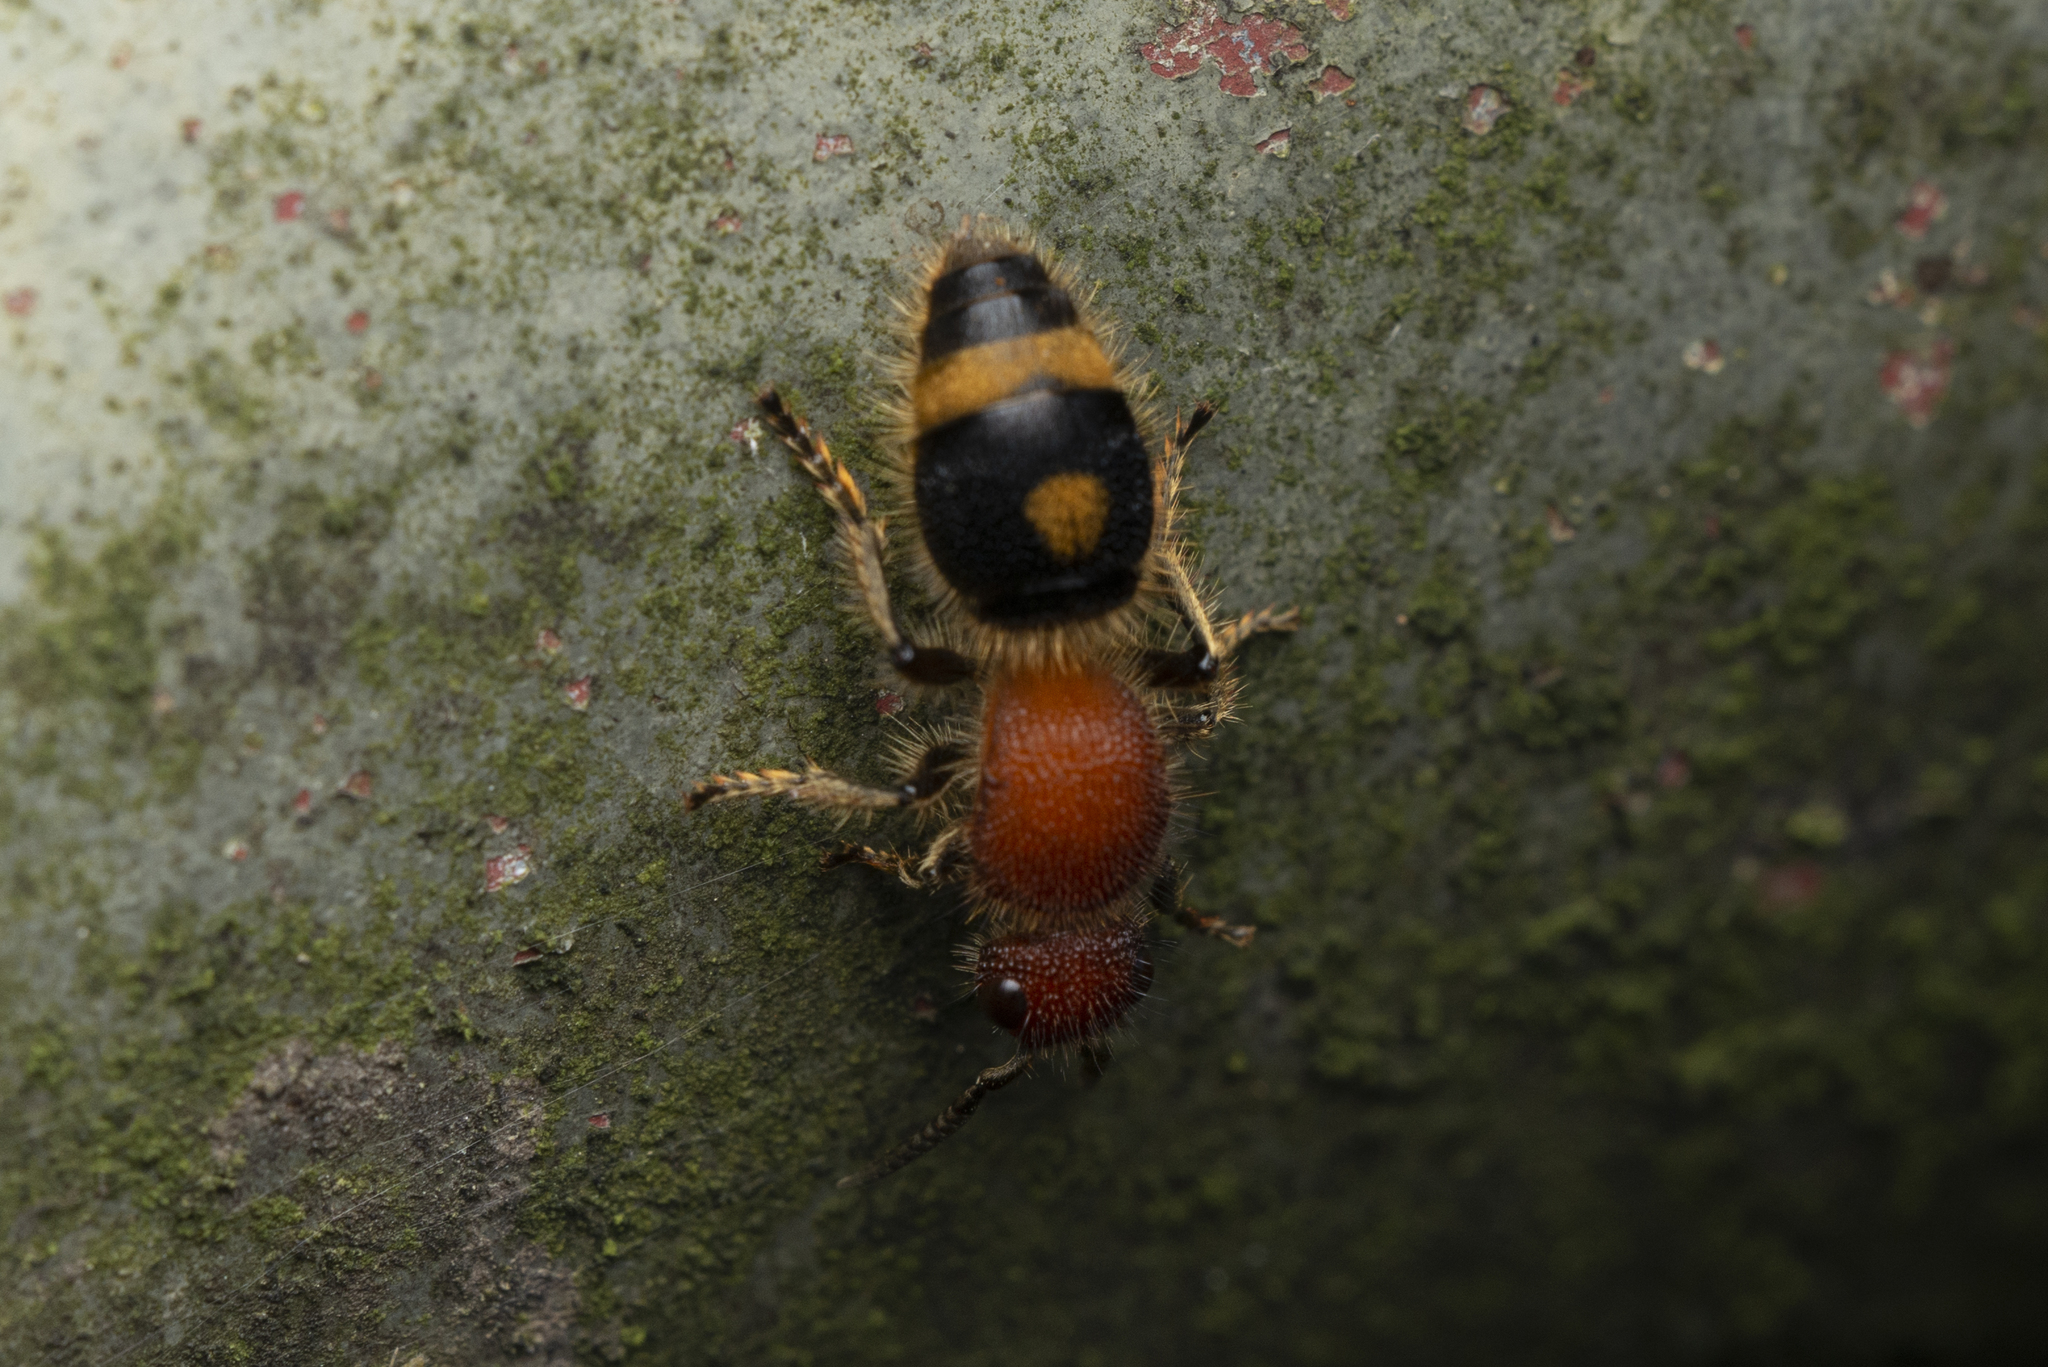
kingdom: Animalia
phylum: Arthropoda
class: Insecta
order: Hymenoptera
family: Mutillidae
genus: Odontomutilla
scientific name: Odontomutilla uranioides
